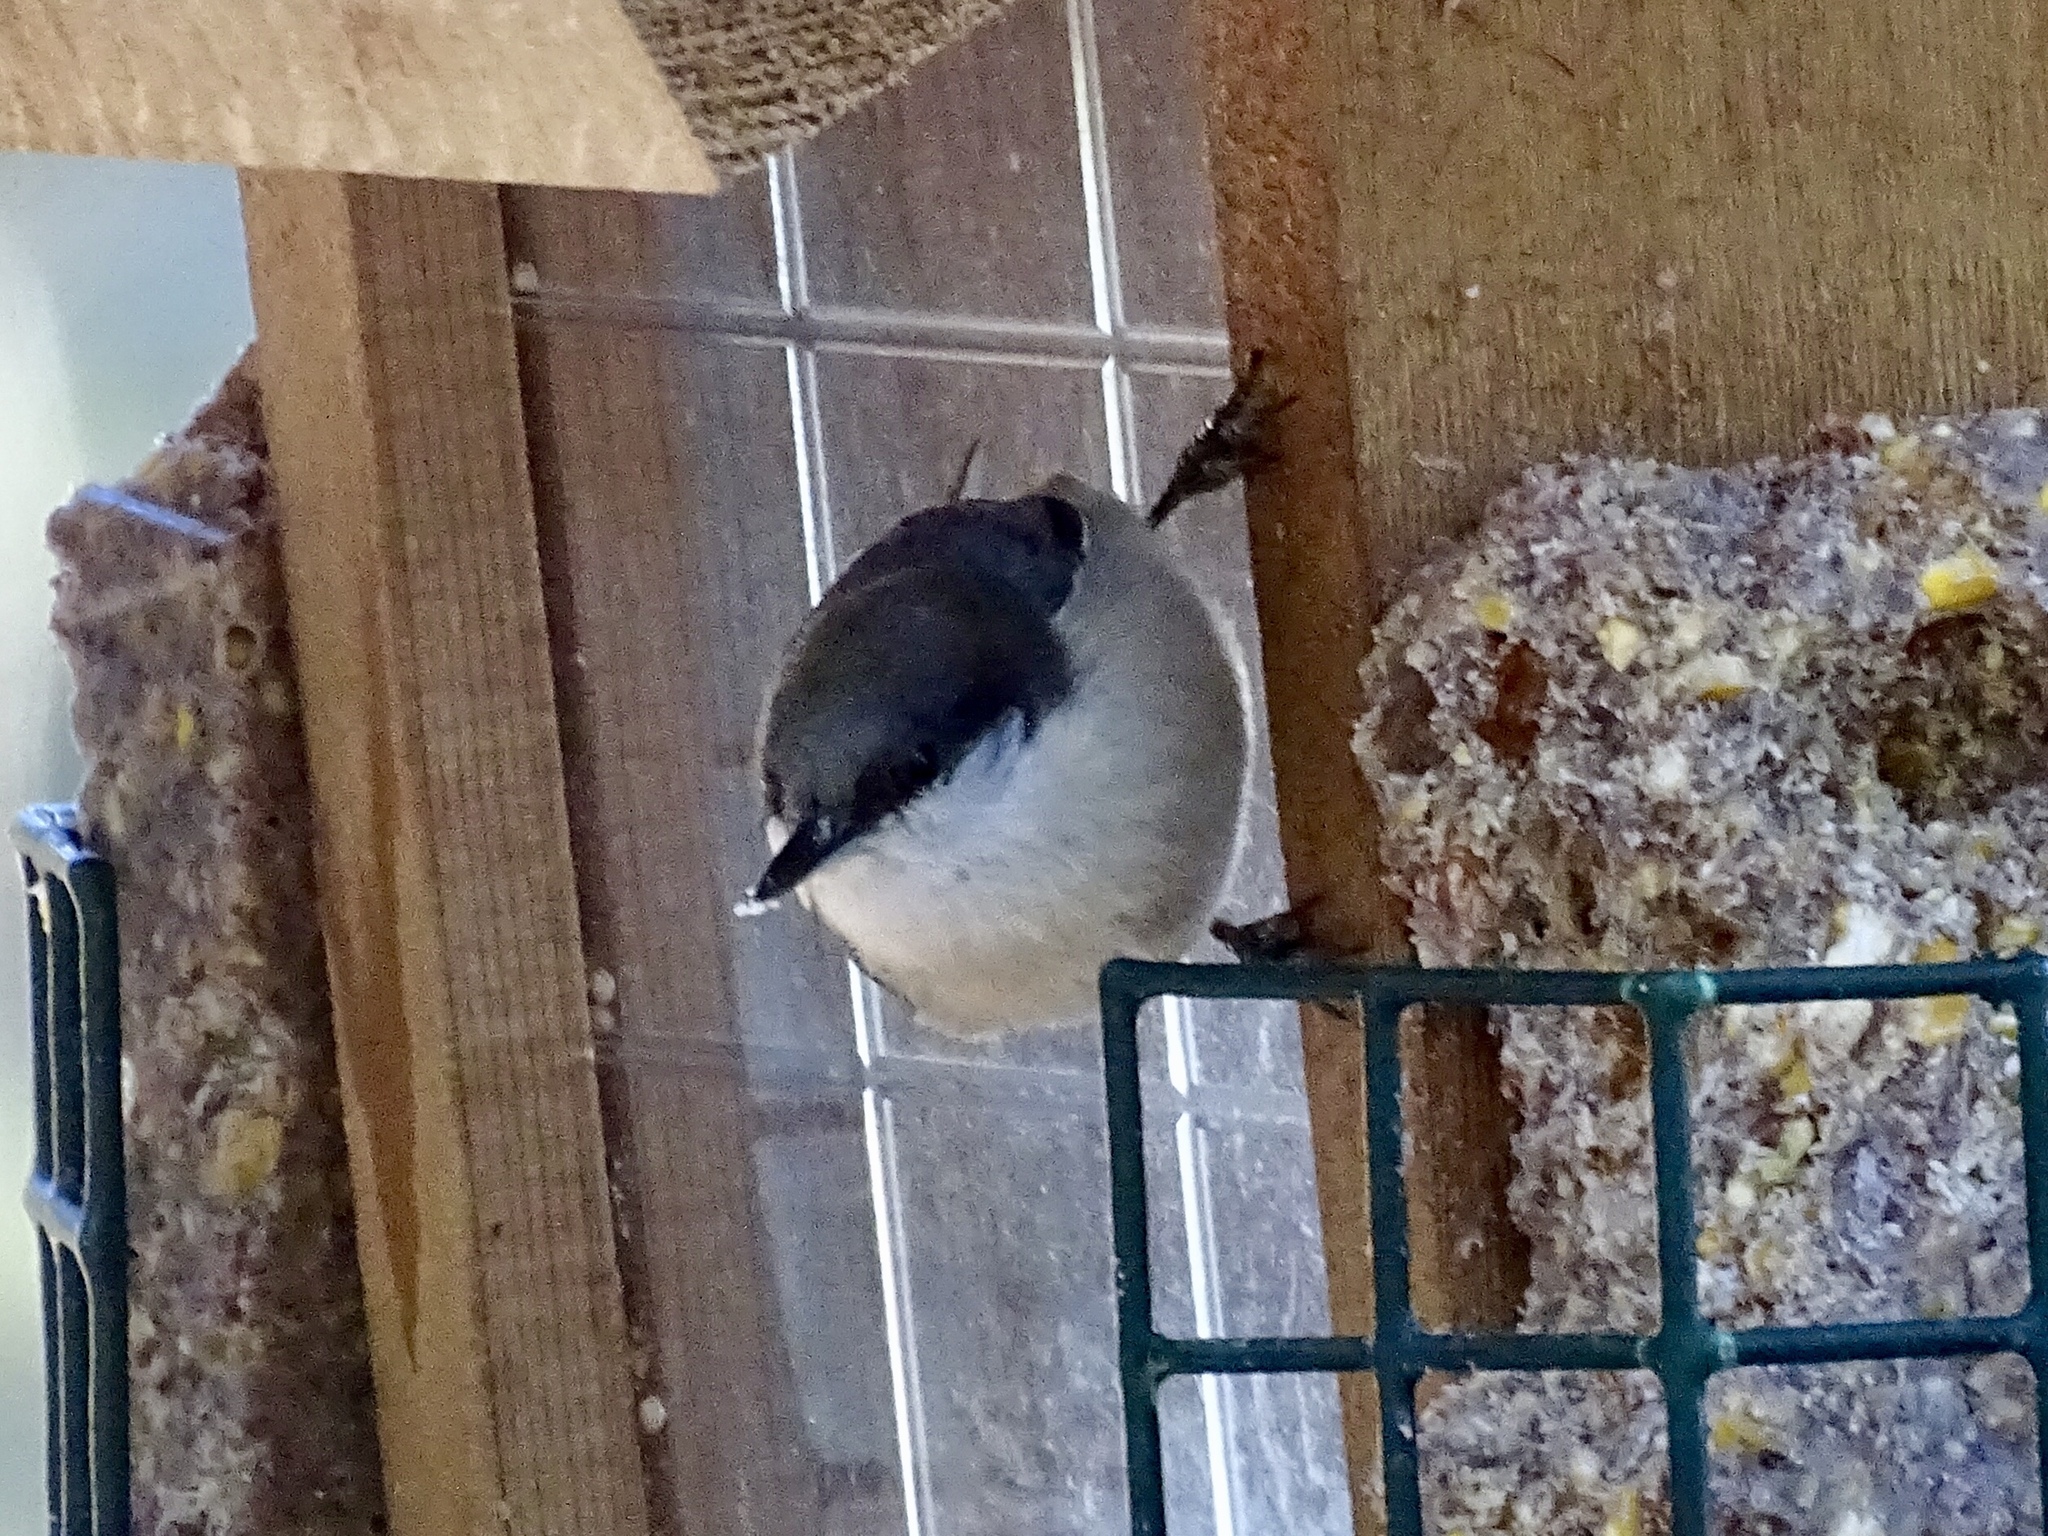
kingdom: Animalia
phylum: Chordata
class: Aves
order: Passeriformes
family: Sittidae
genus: Sitta
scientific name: Sitta pygmaea
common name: Pygmy nuthatch
